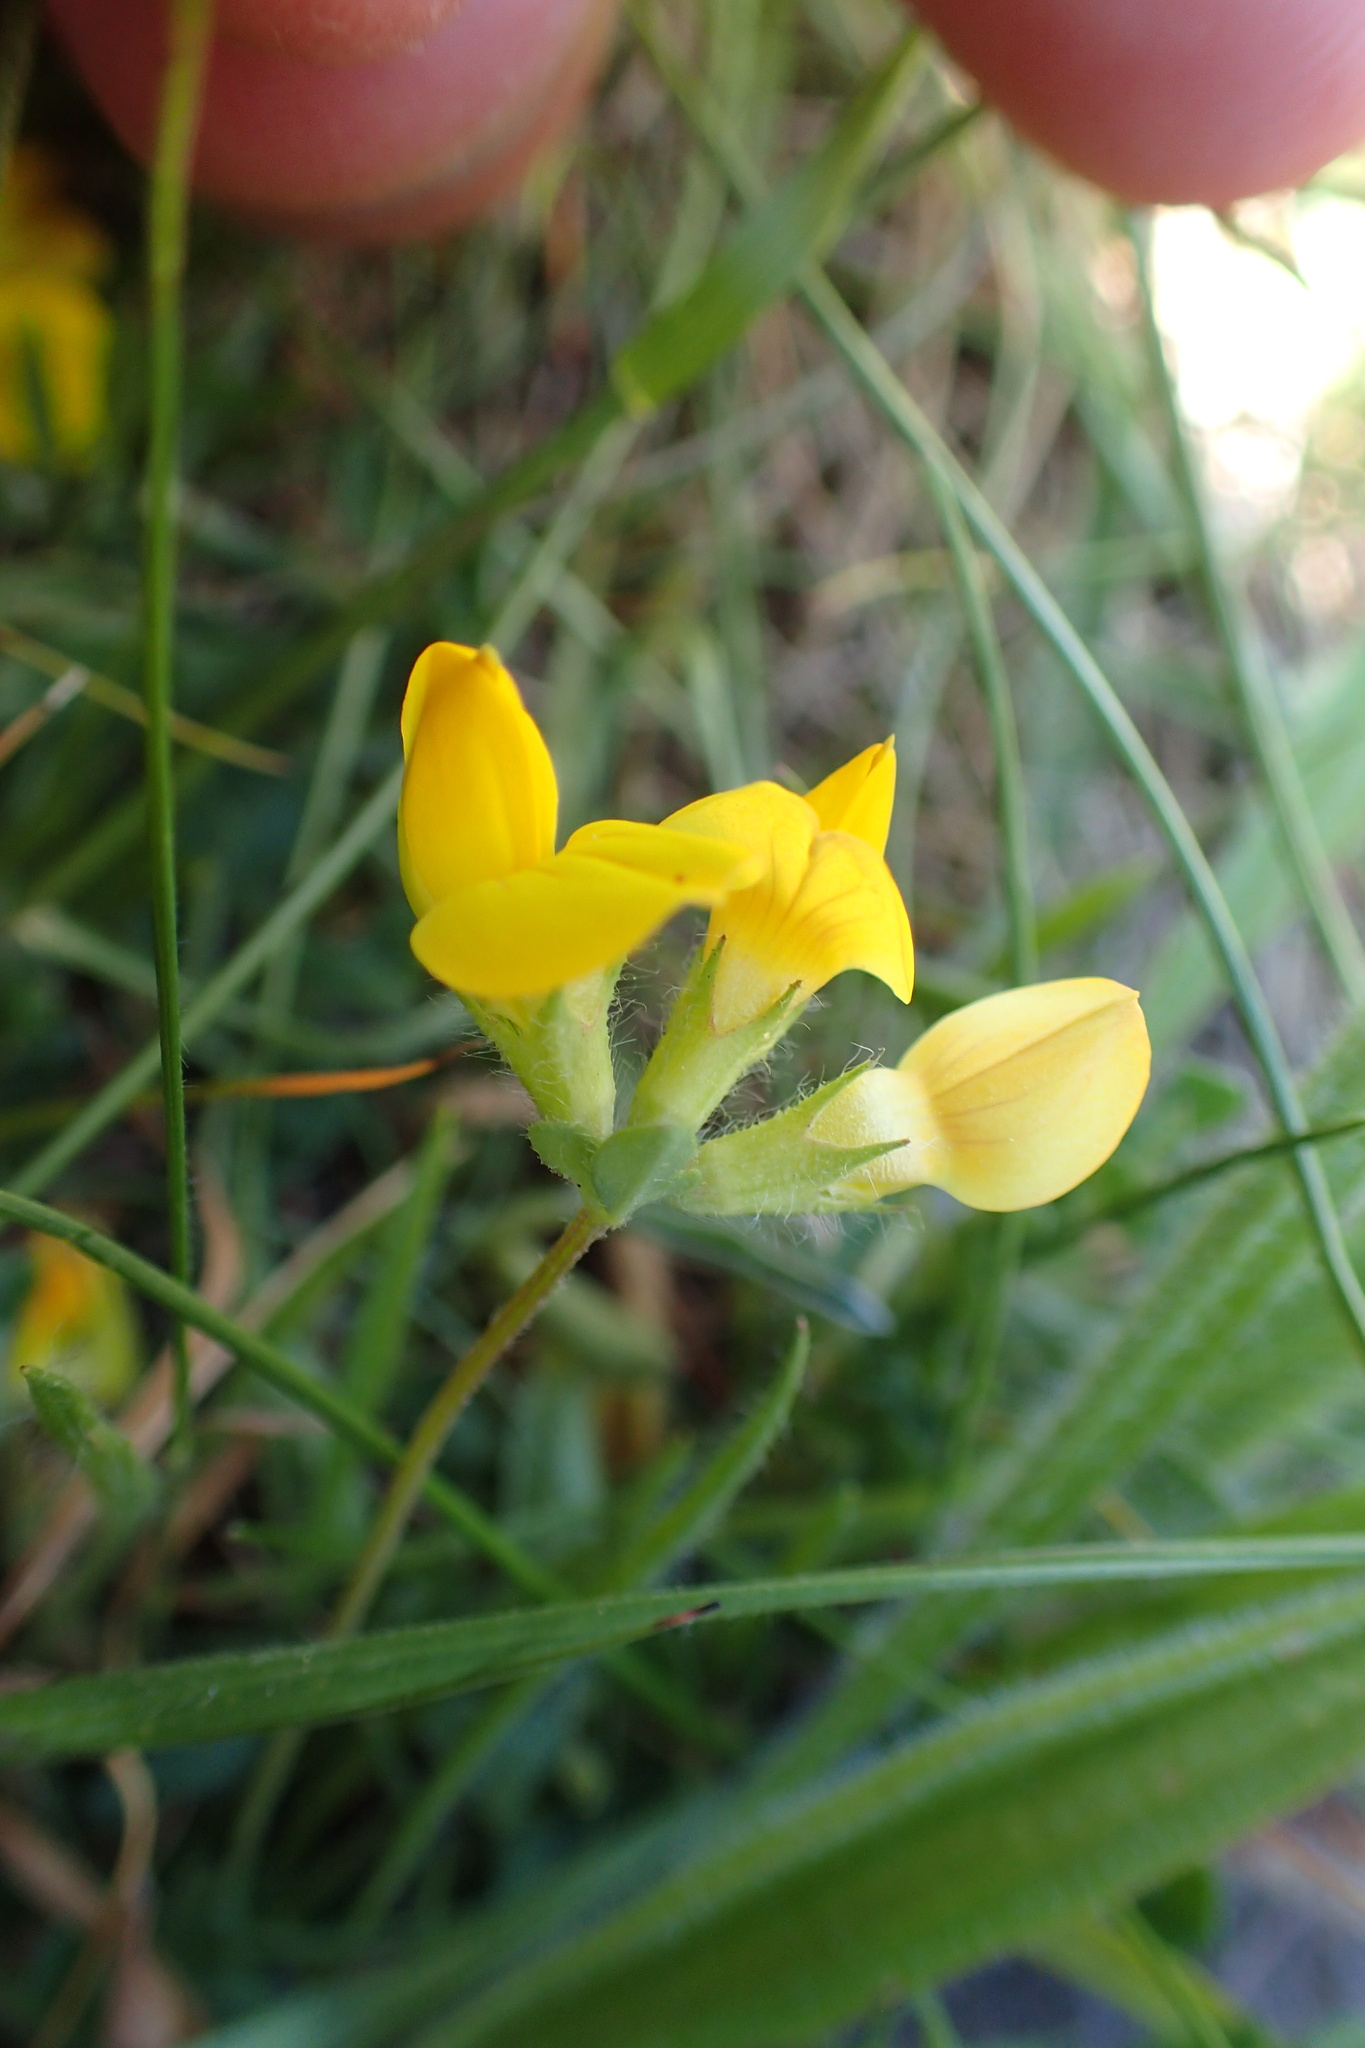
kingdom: Plantae
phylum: Tracheophyta
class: Magnoliopsida
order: Fabales
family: Fabaceae
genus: Lotus
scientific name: Lotus corniculatus
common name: Common bird's-foot-trefoil
